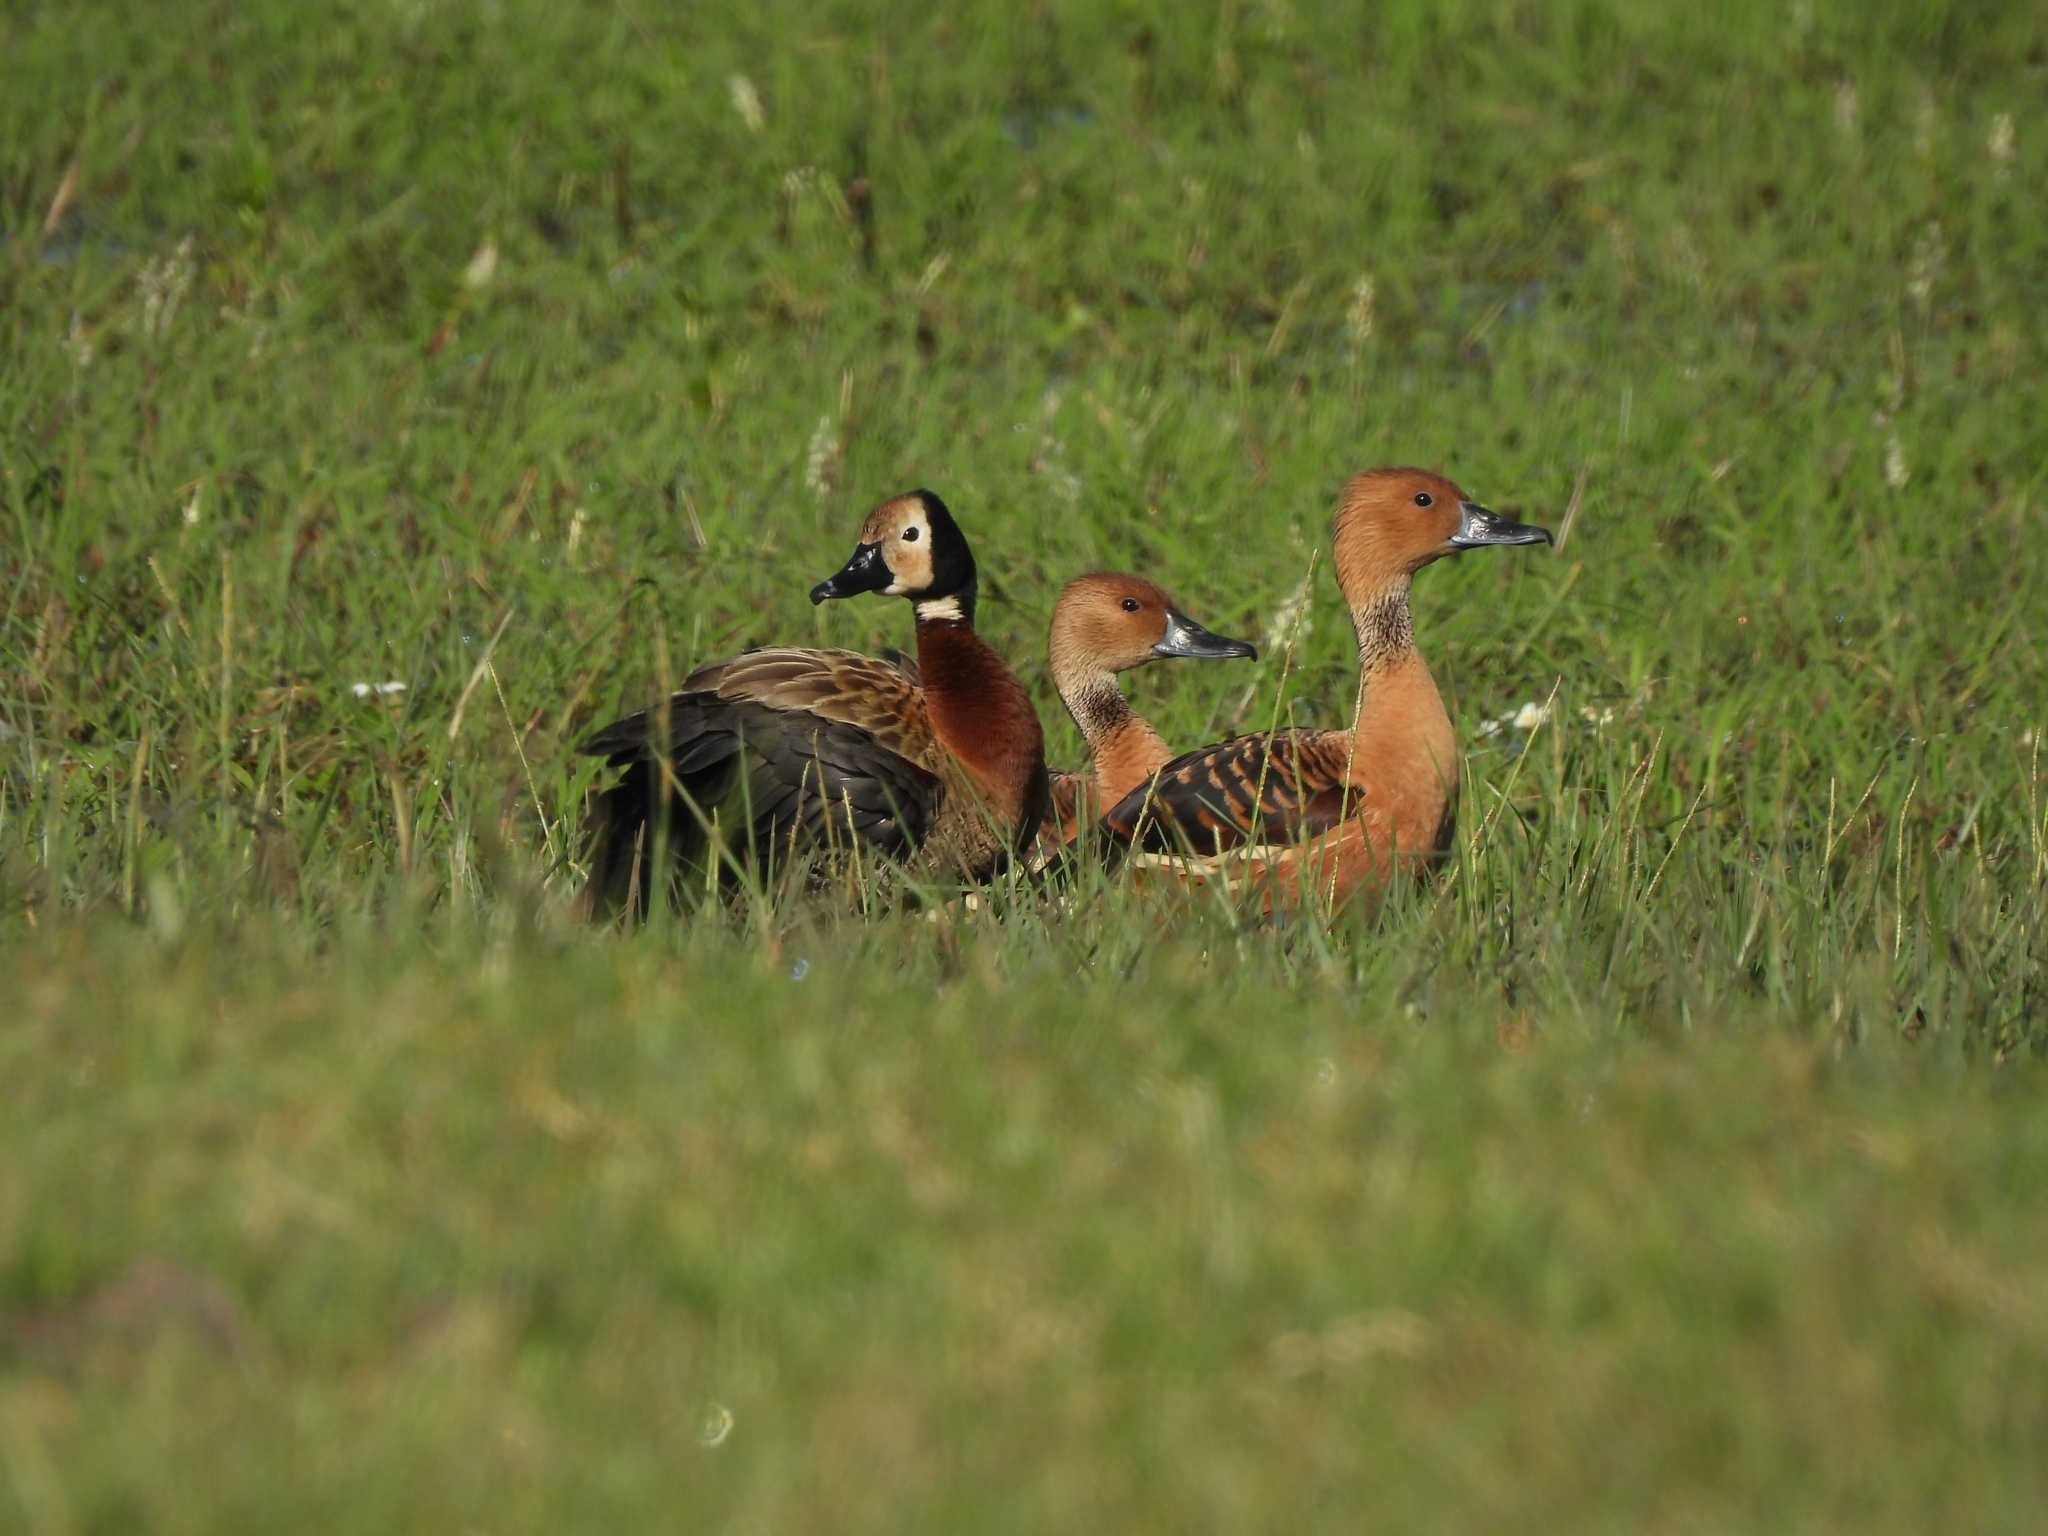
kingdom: Animalia
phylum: Chordata
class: Aves
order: Anseriformes
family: Anatidae
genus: Dendrocygna
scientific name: Dendrocygna bicolor
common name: Fulvous whistling duck
